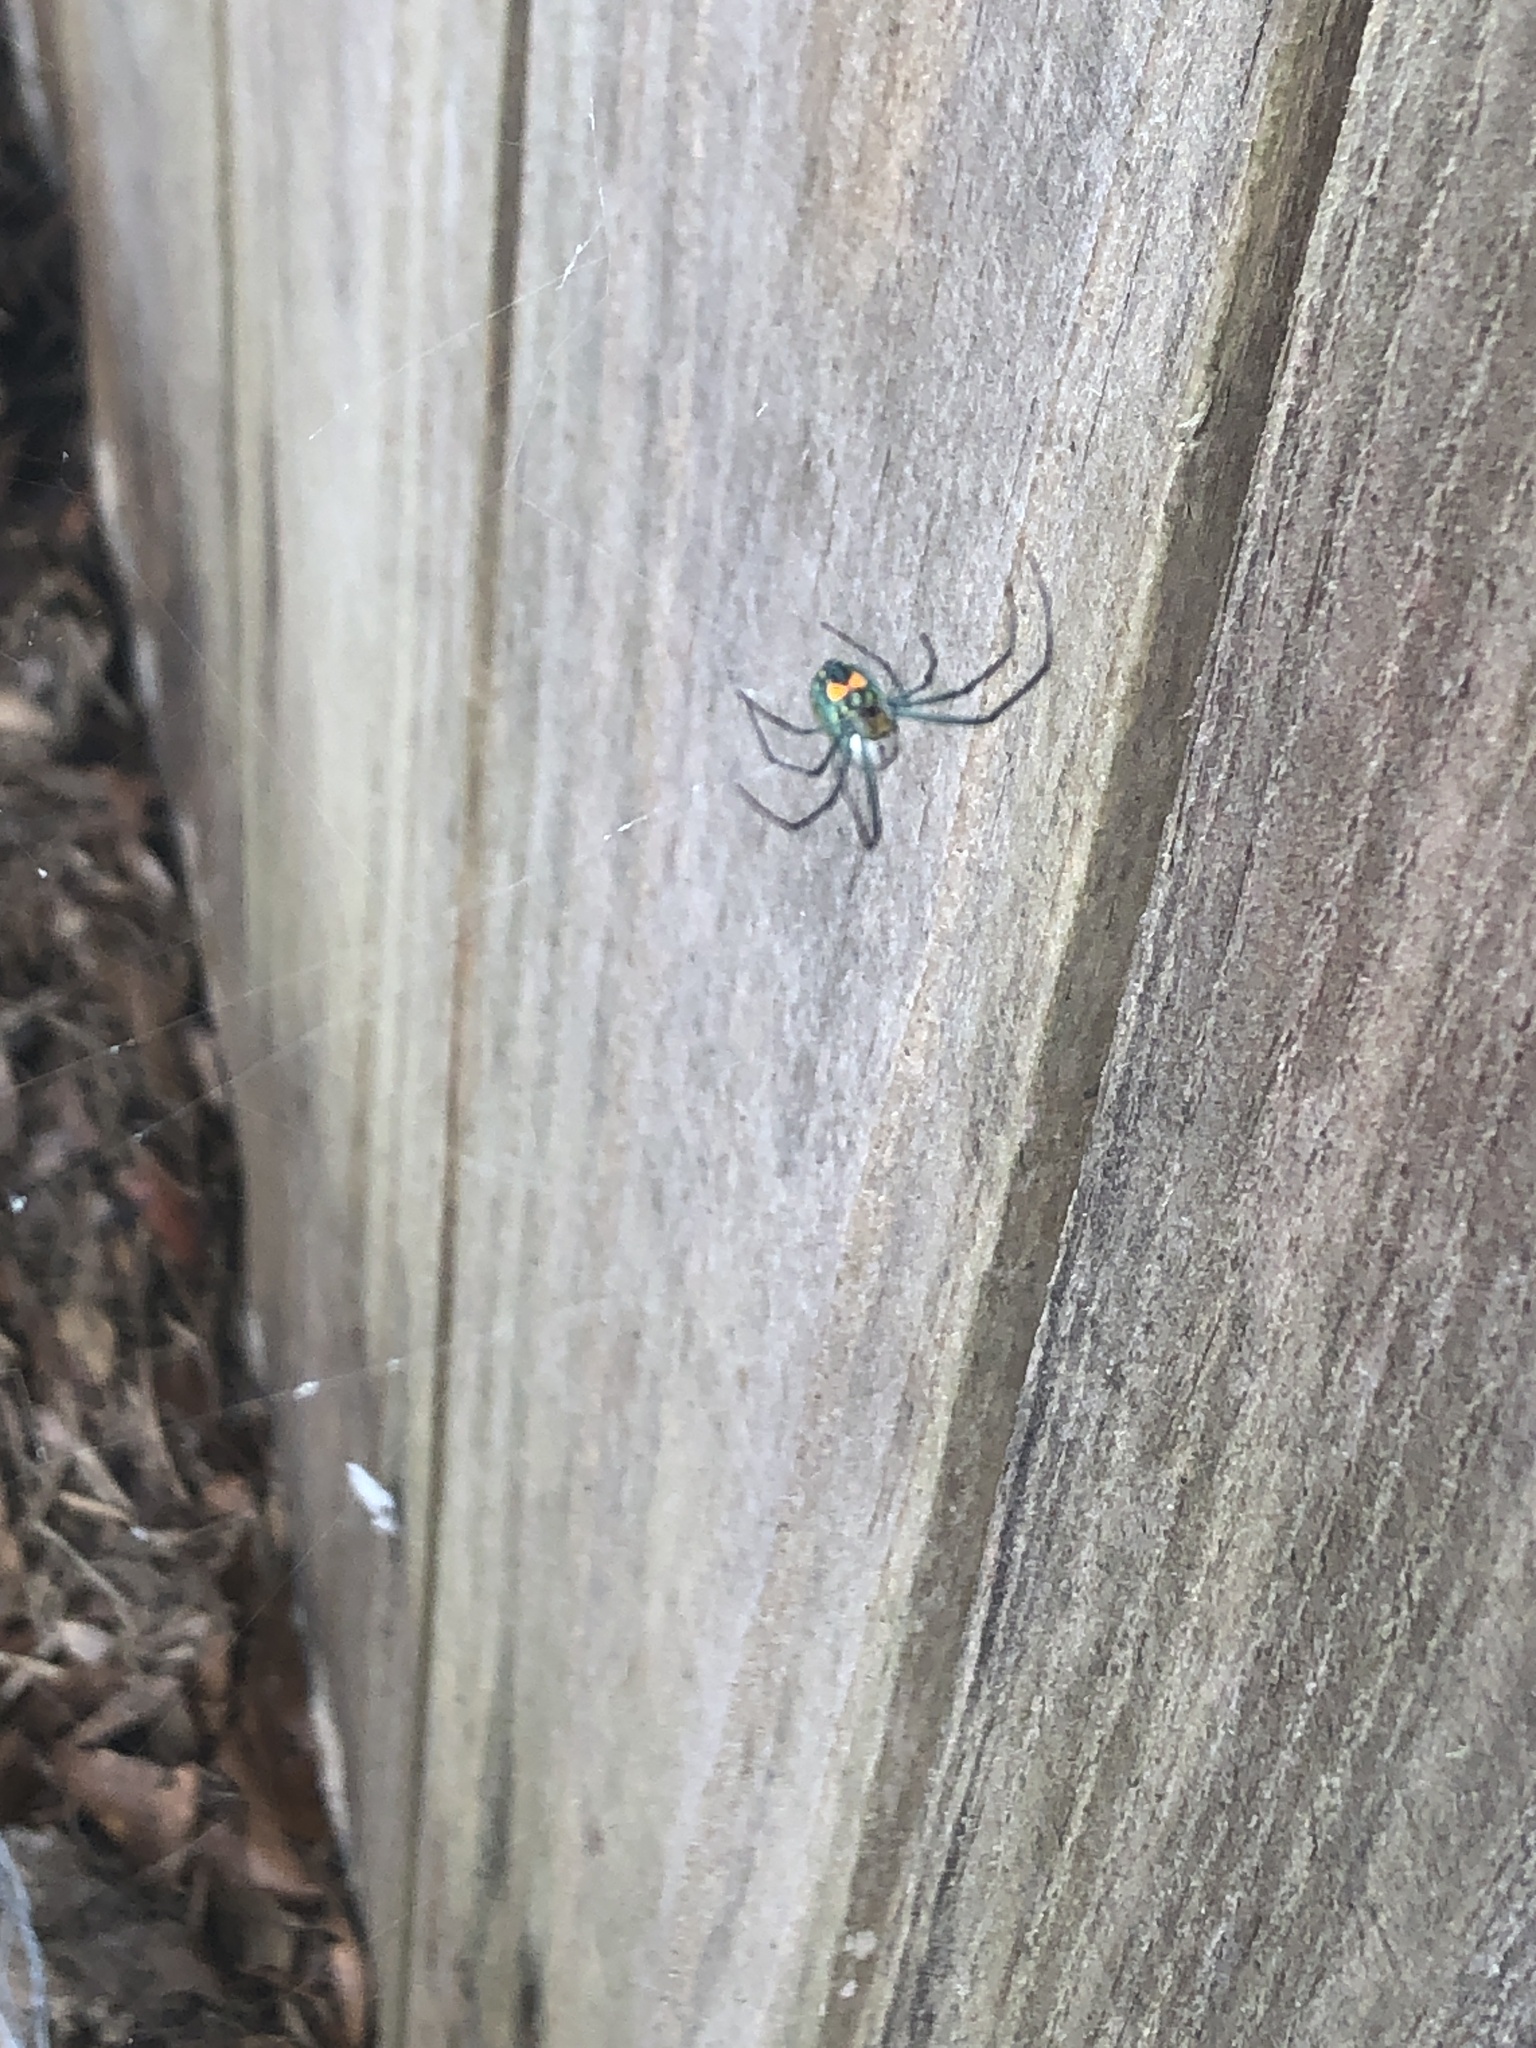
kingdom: Animalia
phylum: Arthropoda
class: Arachnida
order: Araneae
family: Tetragnathidae
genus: Leucauge
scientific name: Leucauge argyrobapta
